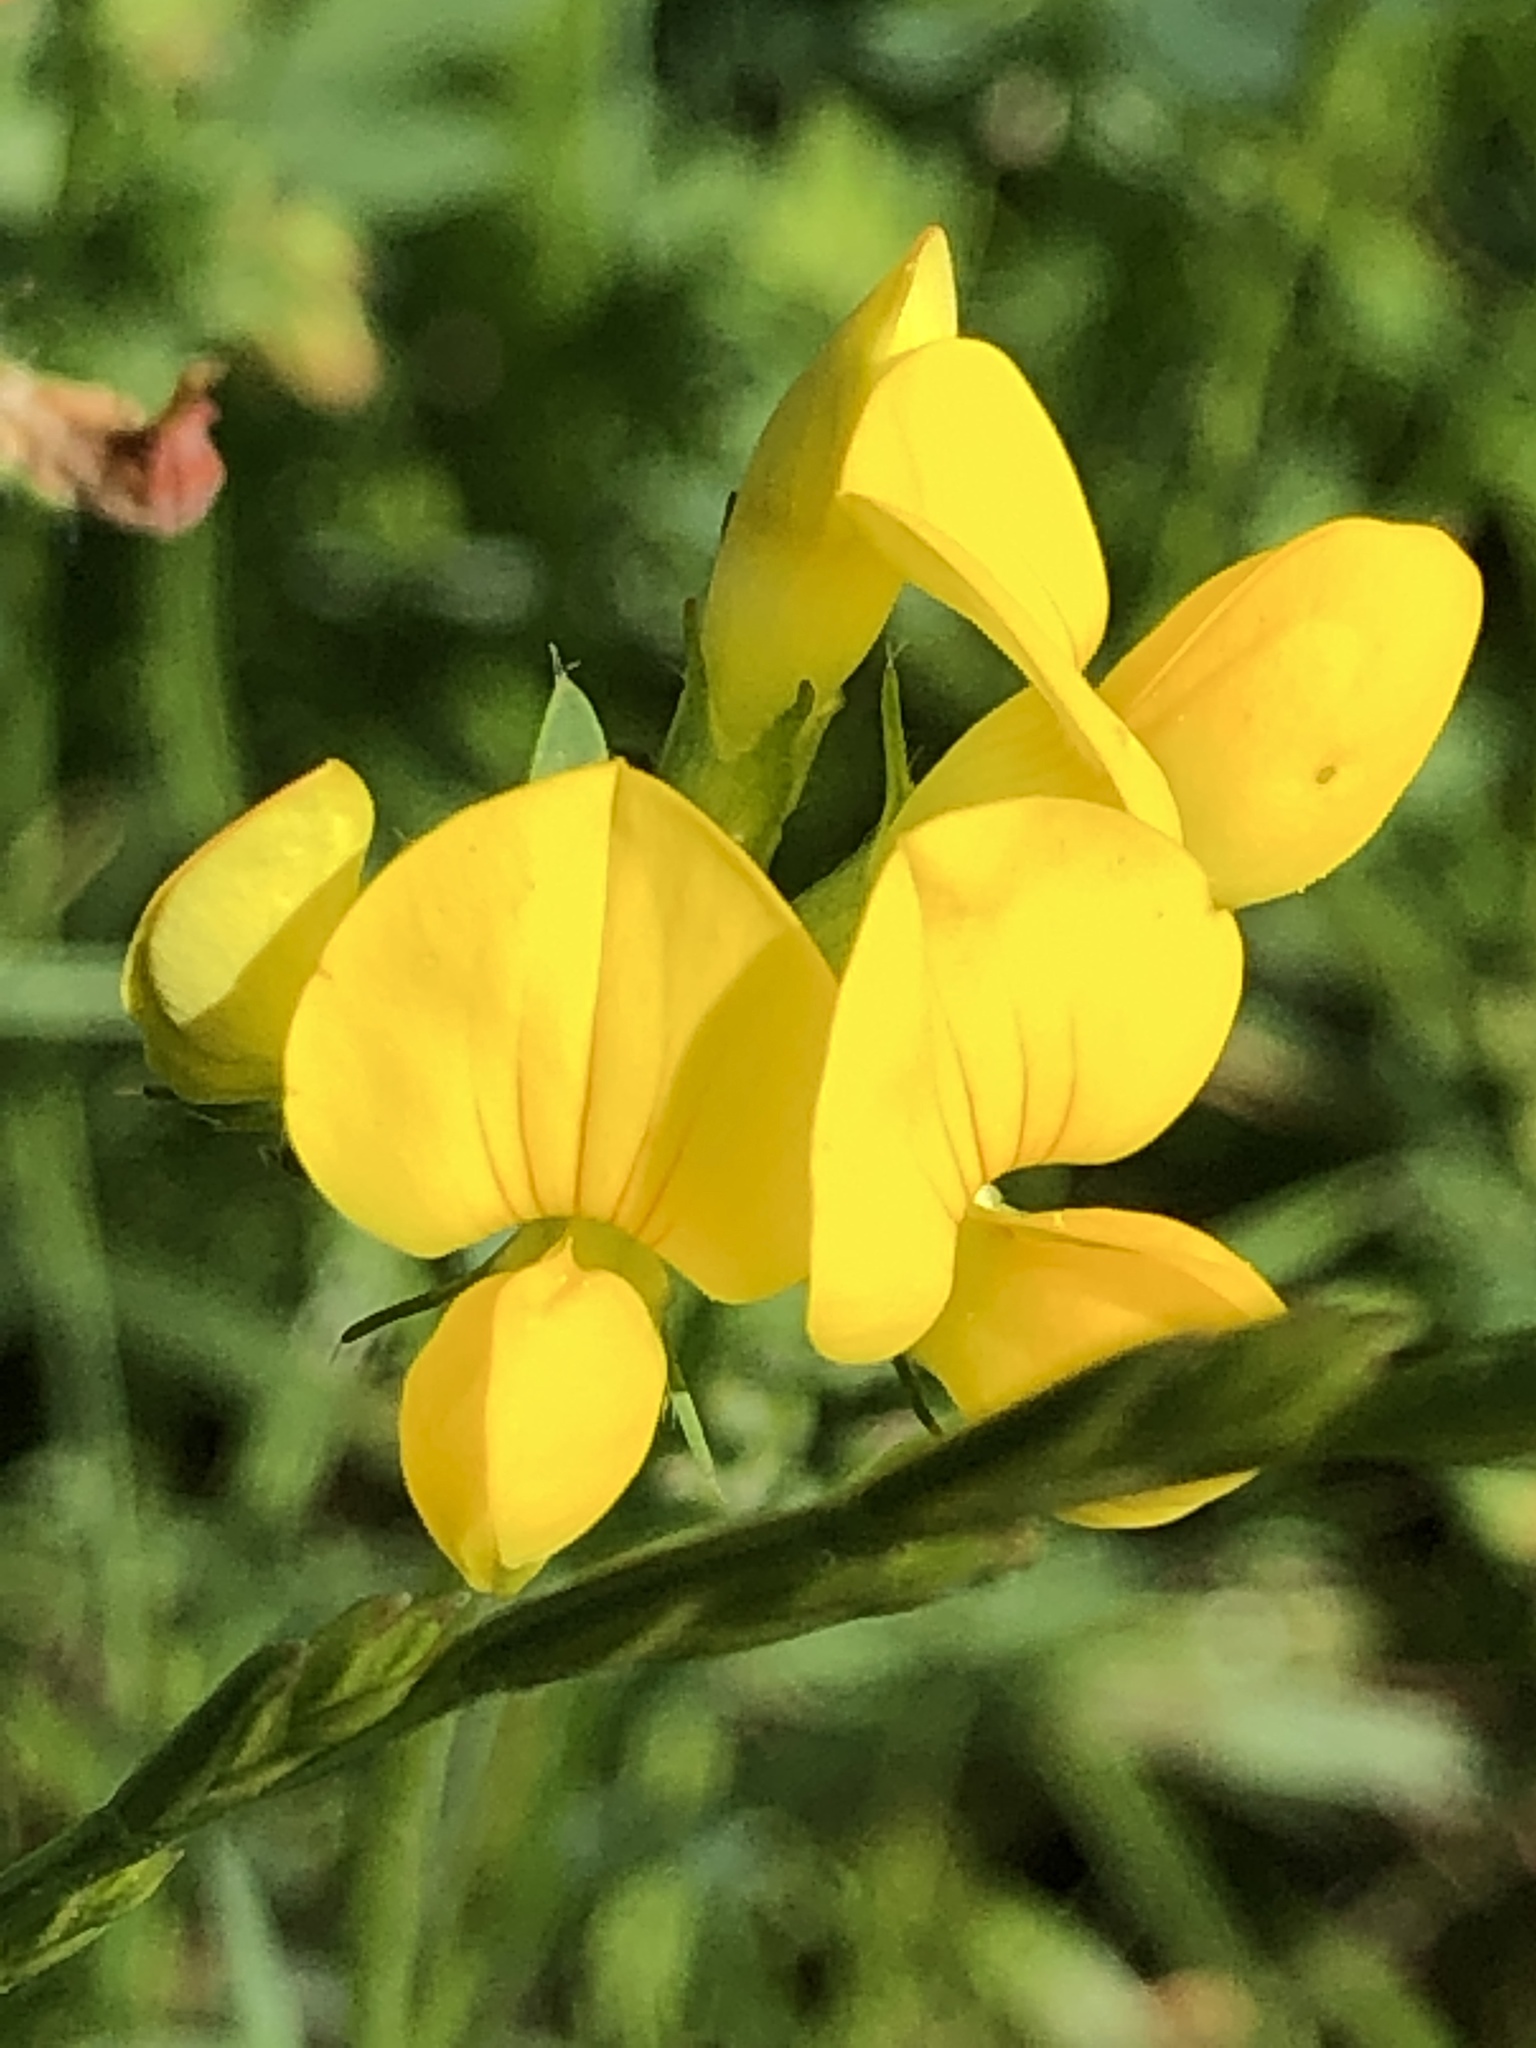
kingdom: Plantae
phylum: Tracheophyta
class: Magnoliopsida
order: Fabales
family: Fabaceae
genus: Lotus
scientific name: Lotus corniculatus
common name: Common bird's-foot-trefoil
